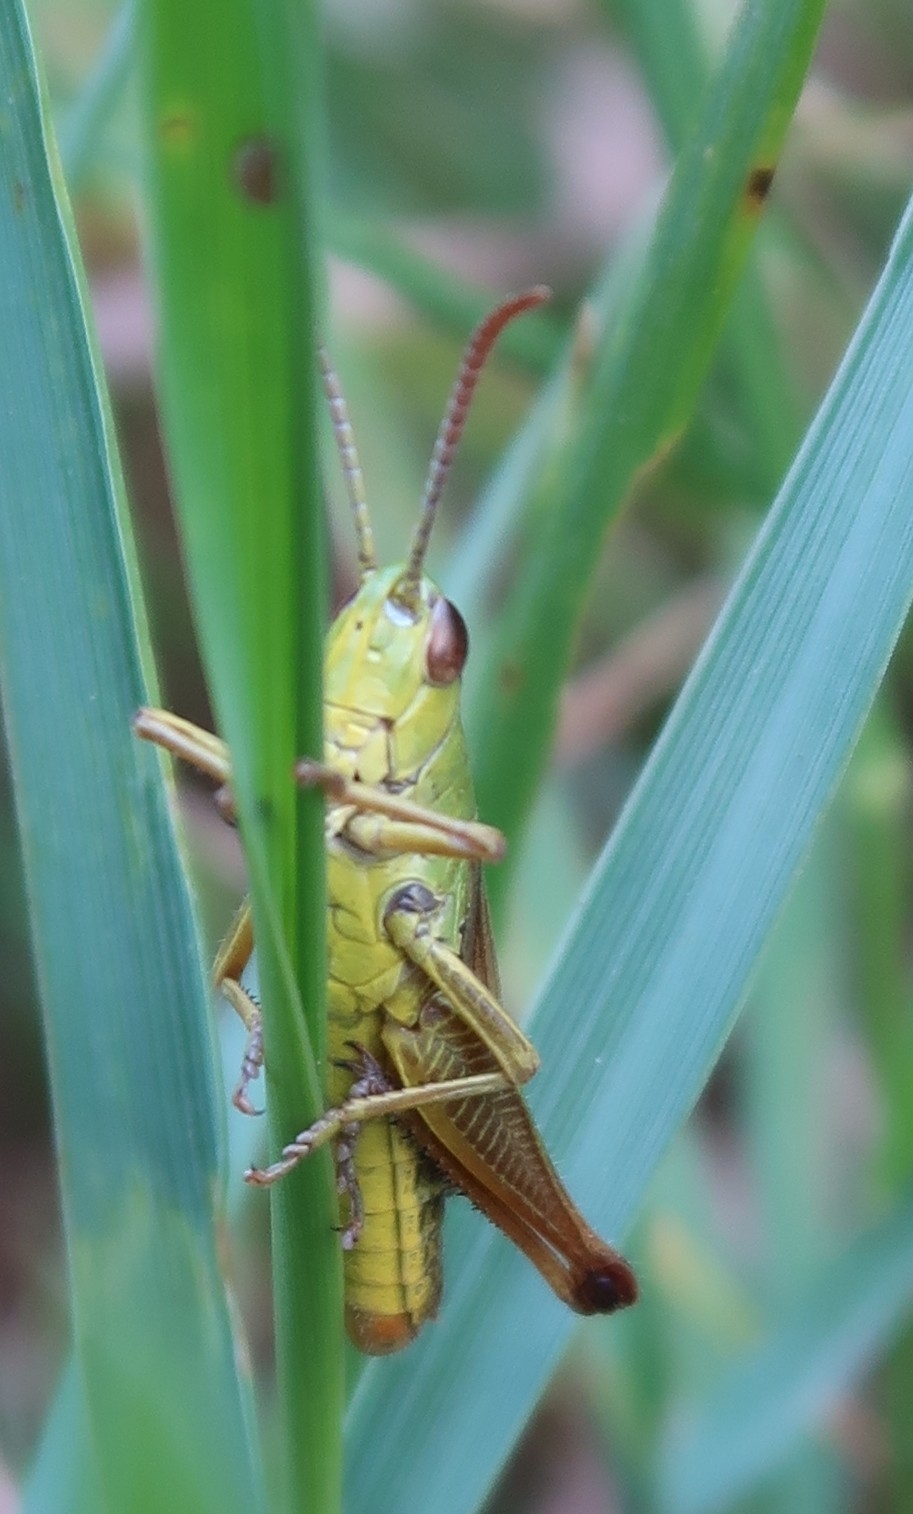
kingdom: Animalia
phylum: Arthropoda
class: Insecta
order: Orthoptera
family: Acrididae
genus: Pseudochorthippus
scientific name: Pseudochorthippus parallelus
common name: Meadow grasshopper
